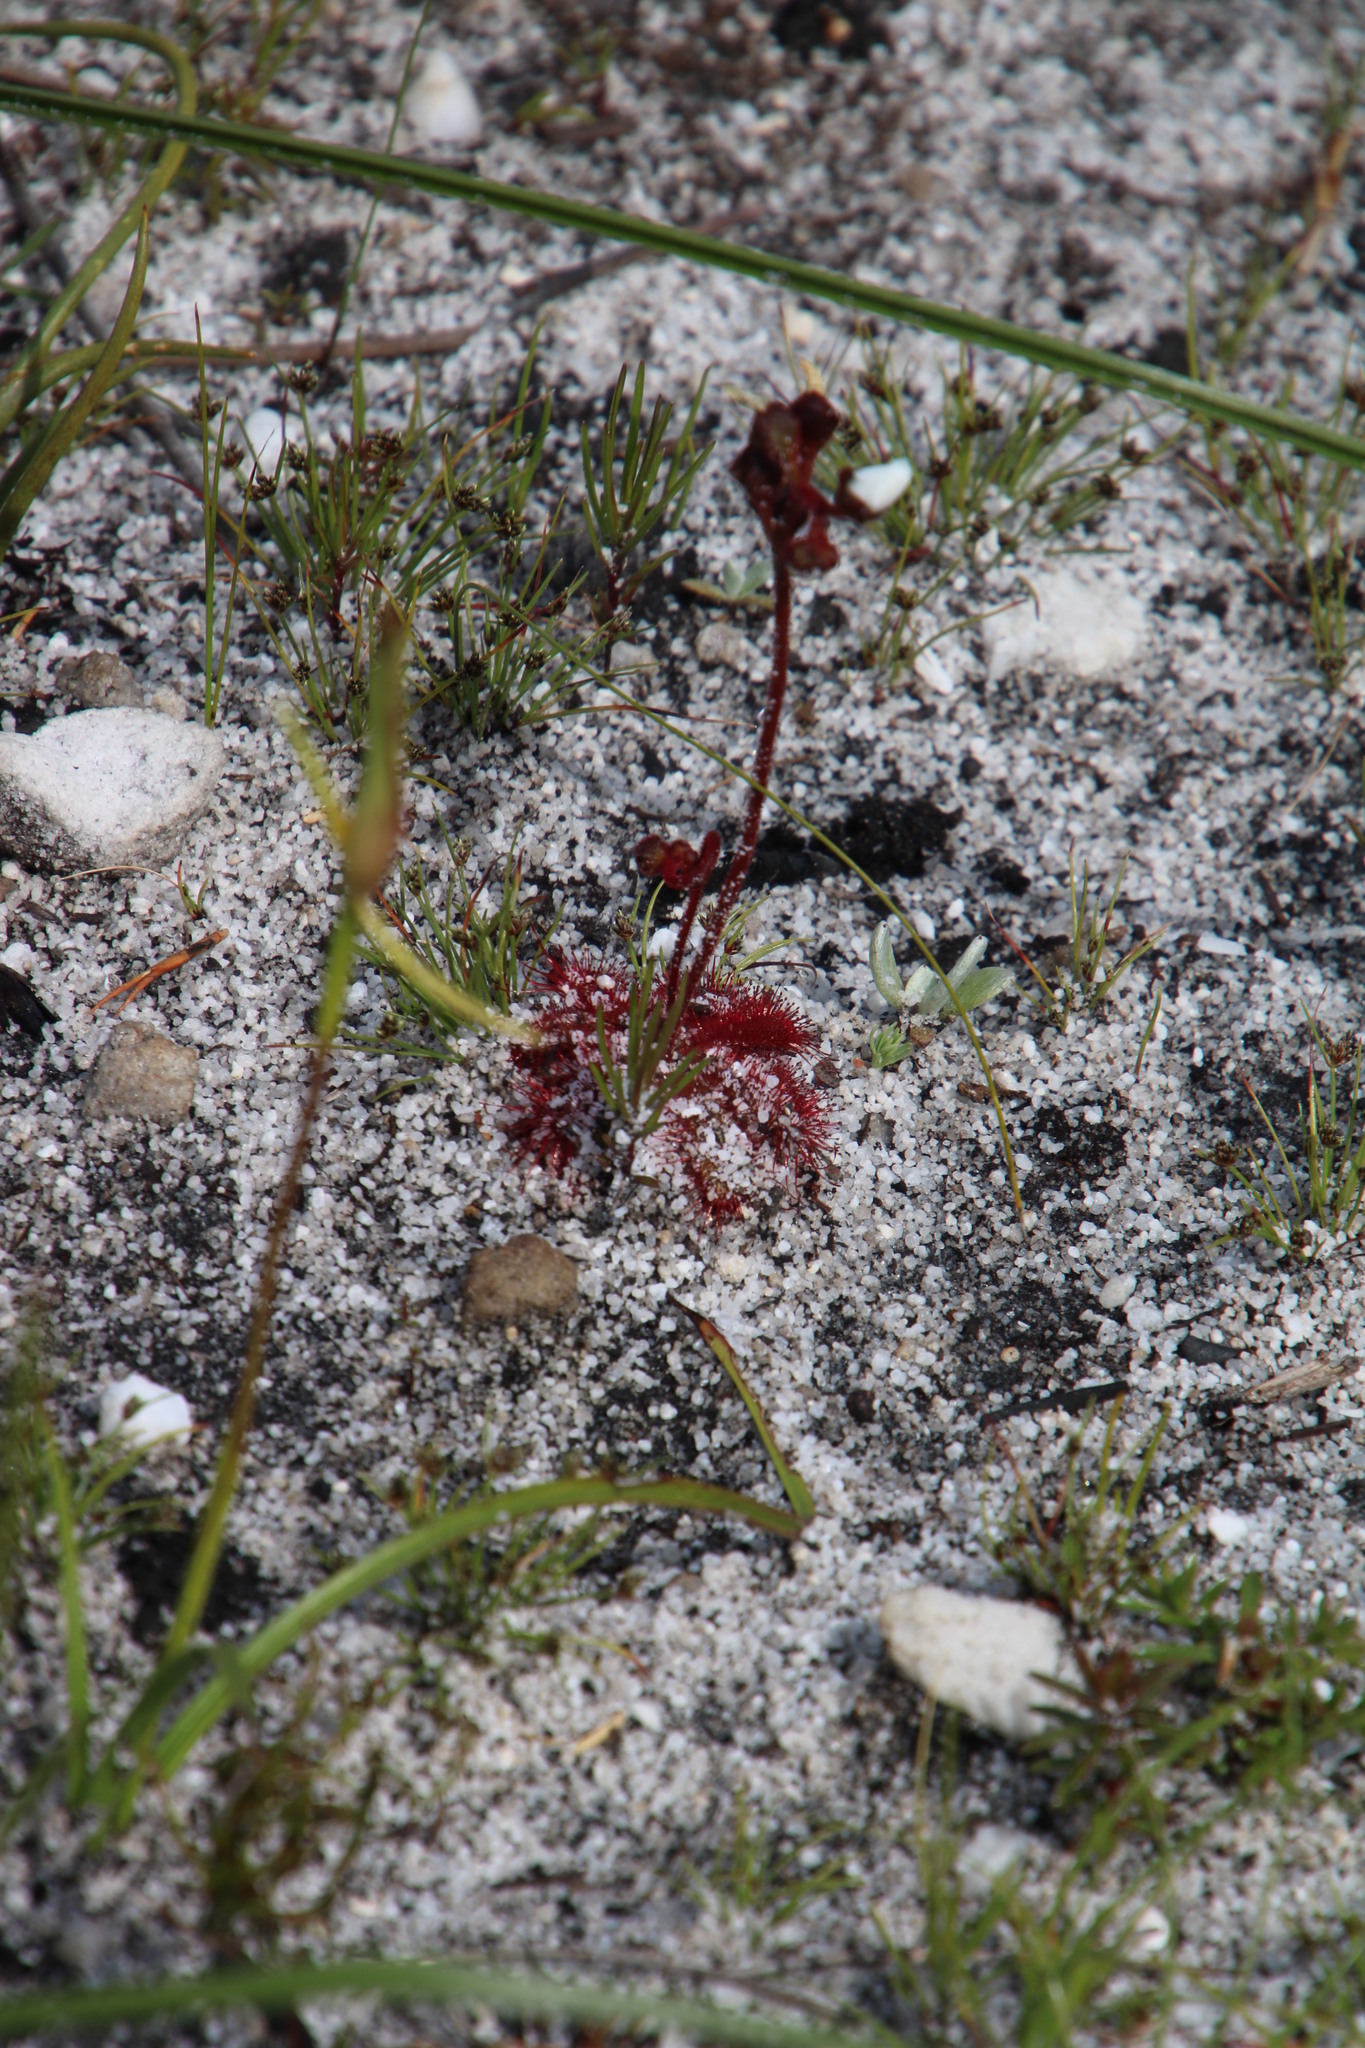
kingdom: Plantae
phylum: Tracheophyta
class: Magnoliopsida
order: Caryophyllales
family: Droseraceae
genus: Drosera
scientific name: Drosera trinervia
